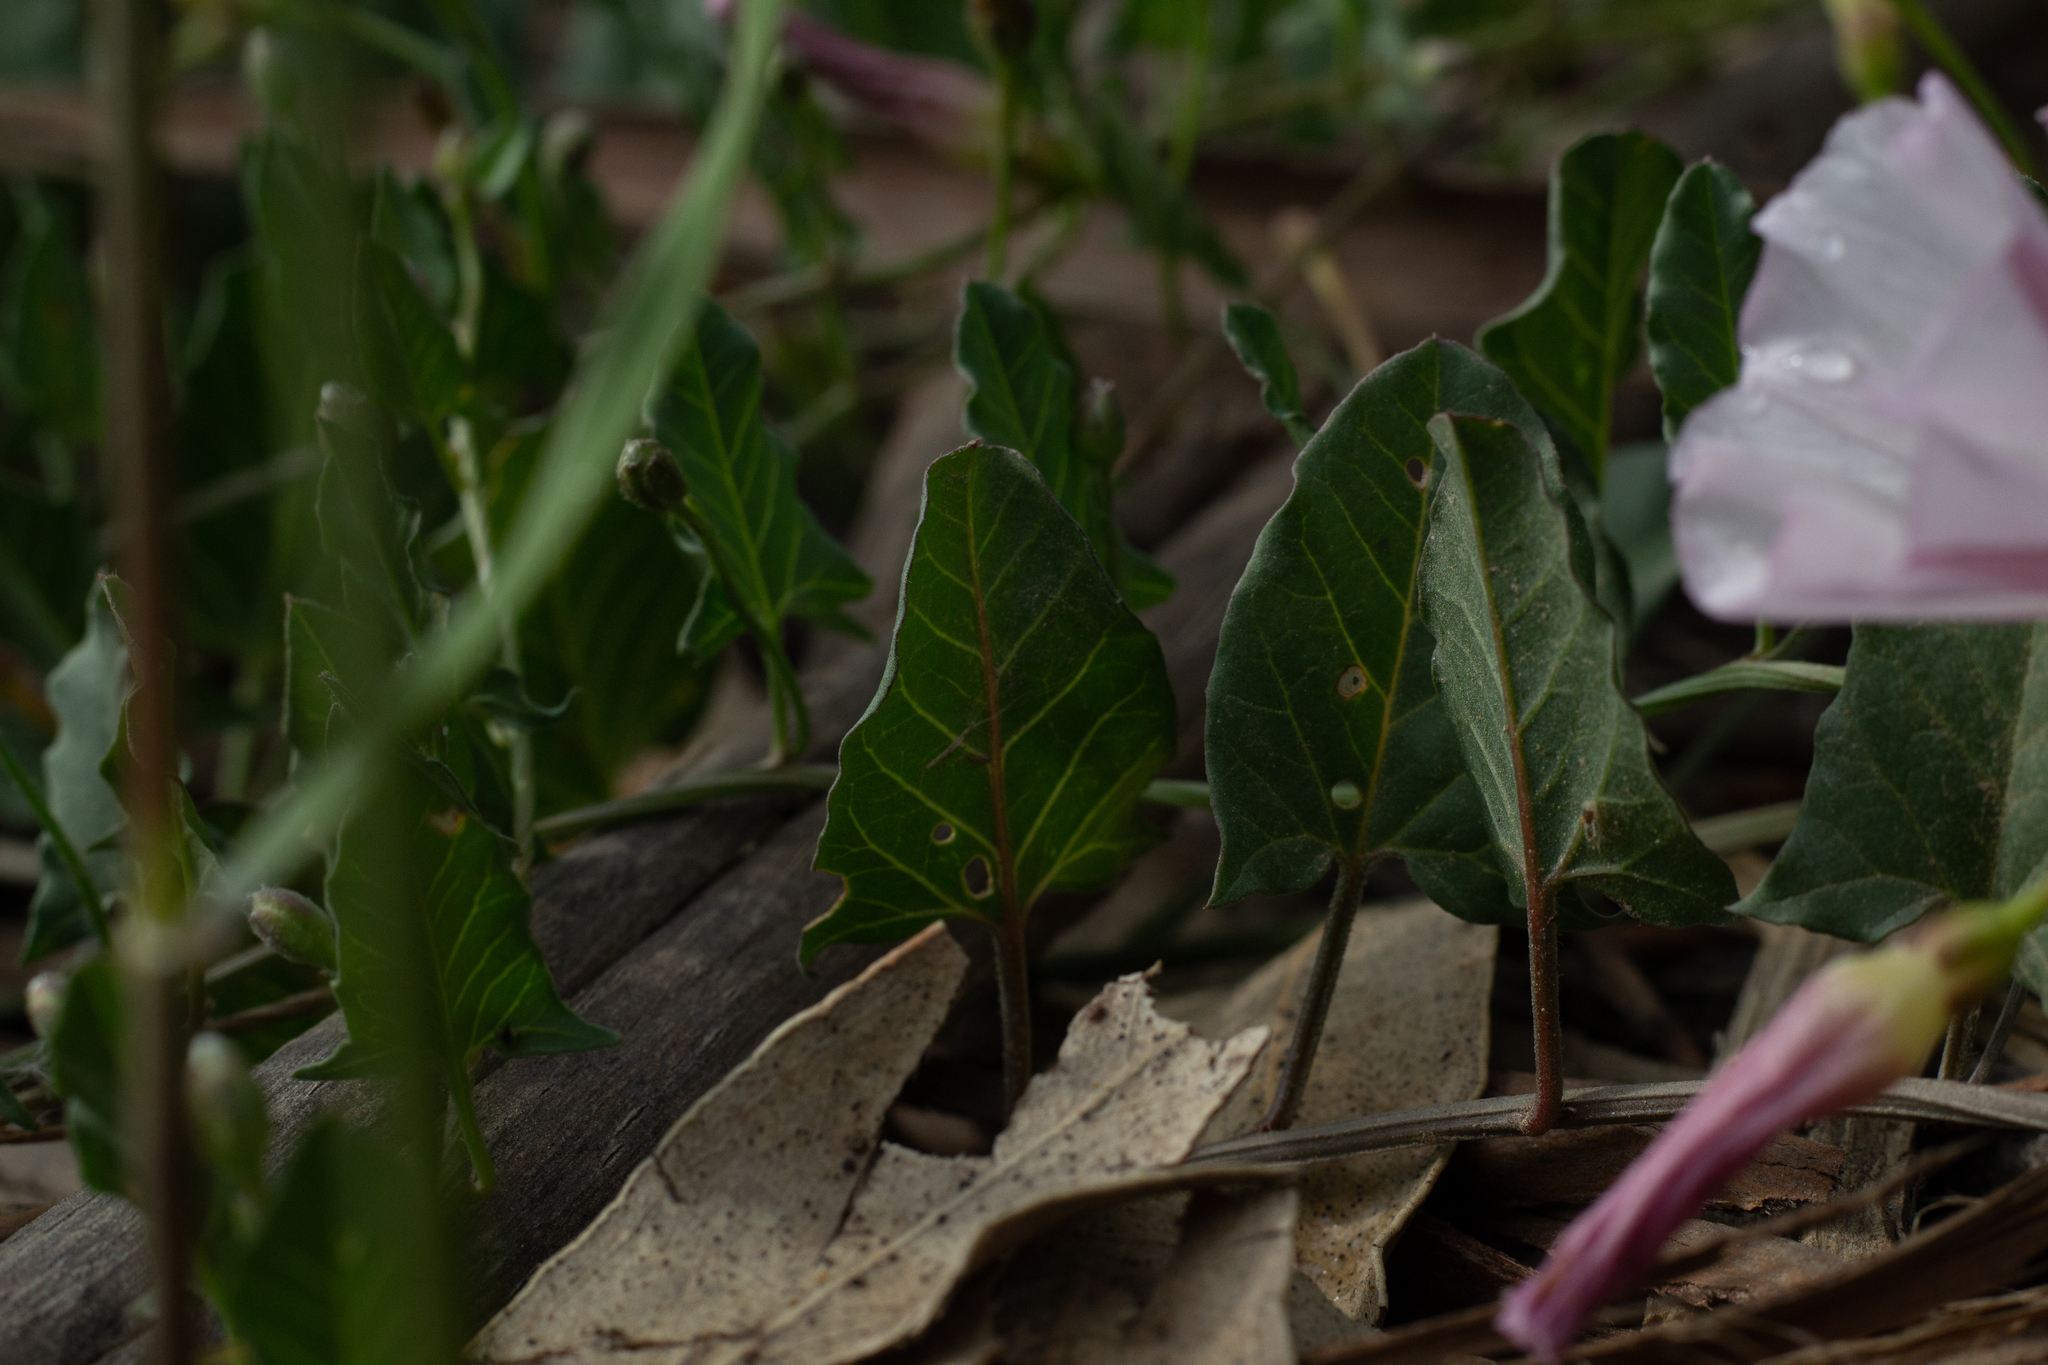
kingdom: Plantae
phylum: Tracheophyta
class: Magnoliopsida
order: Solanales
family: Convolvulaceae
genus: Convolvulus
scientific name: Convolvulus arvensis
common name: Field bindweed
